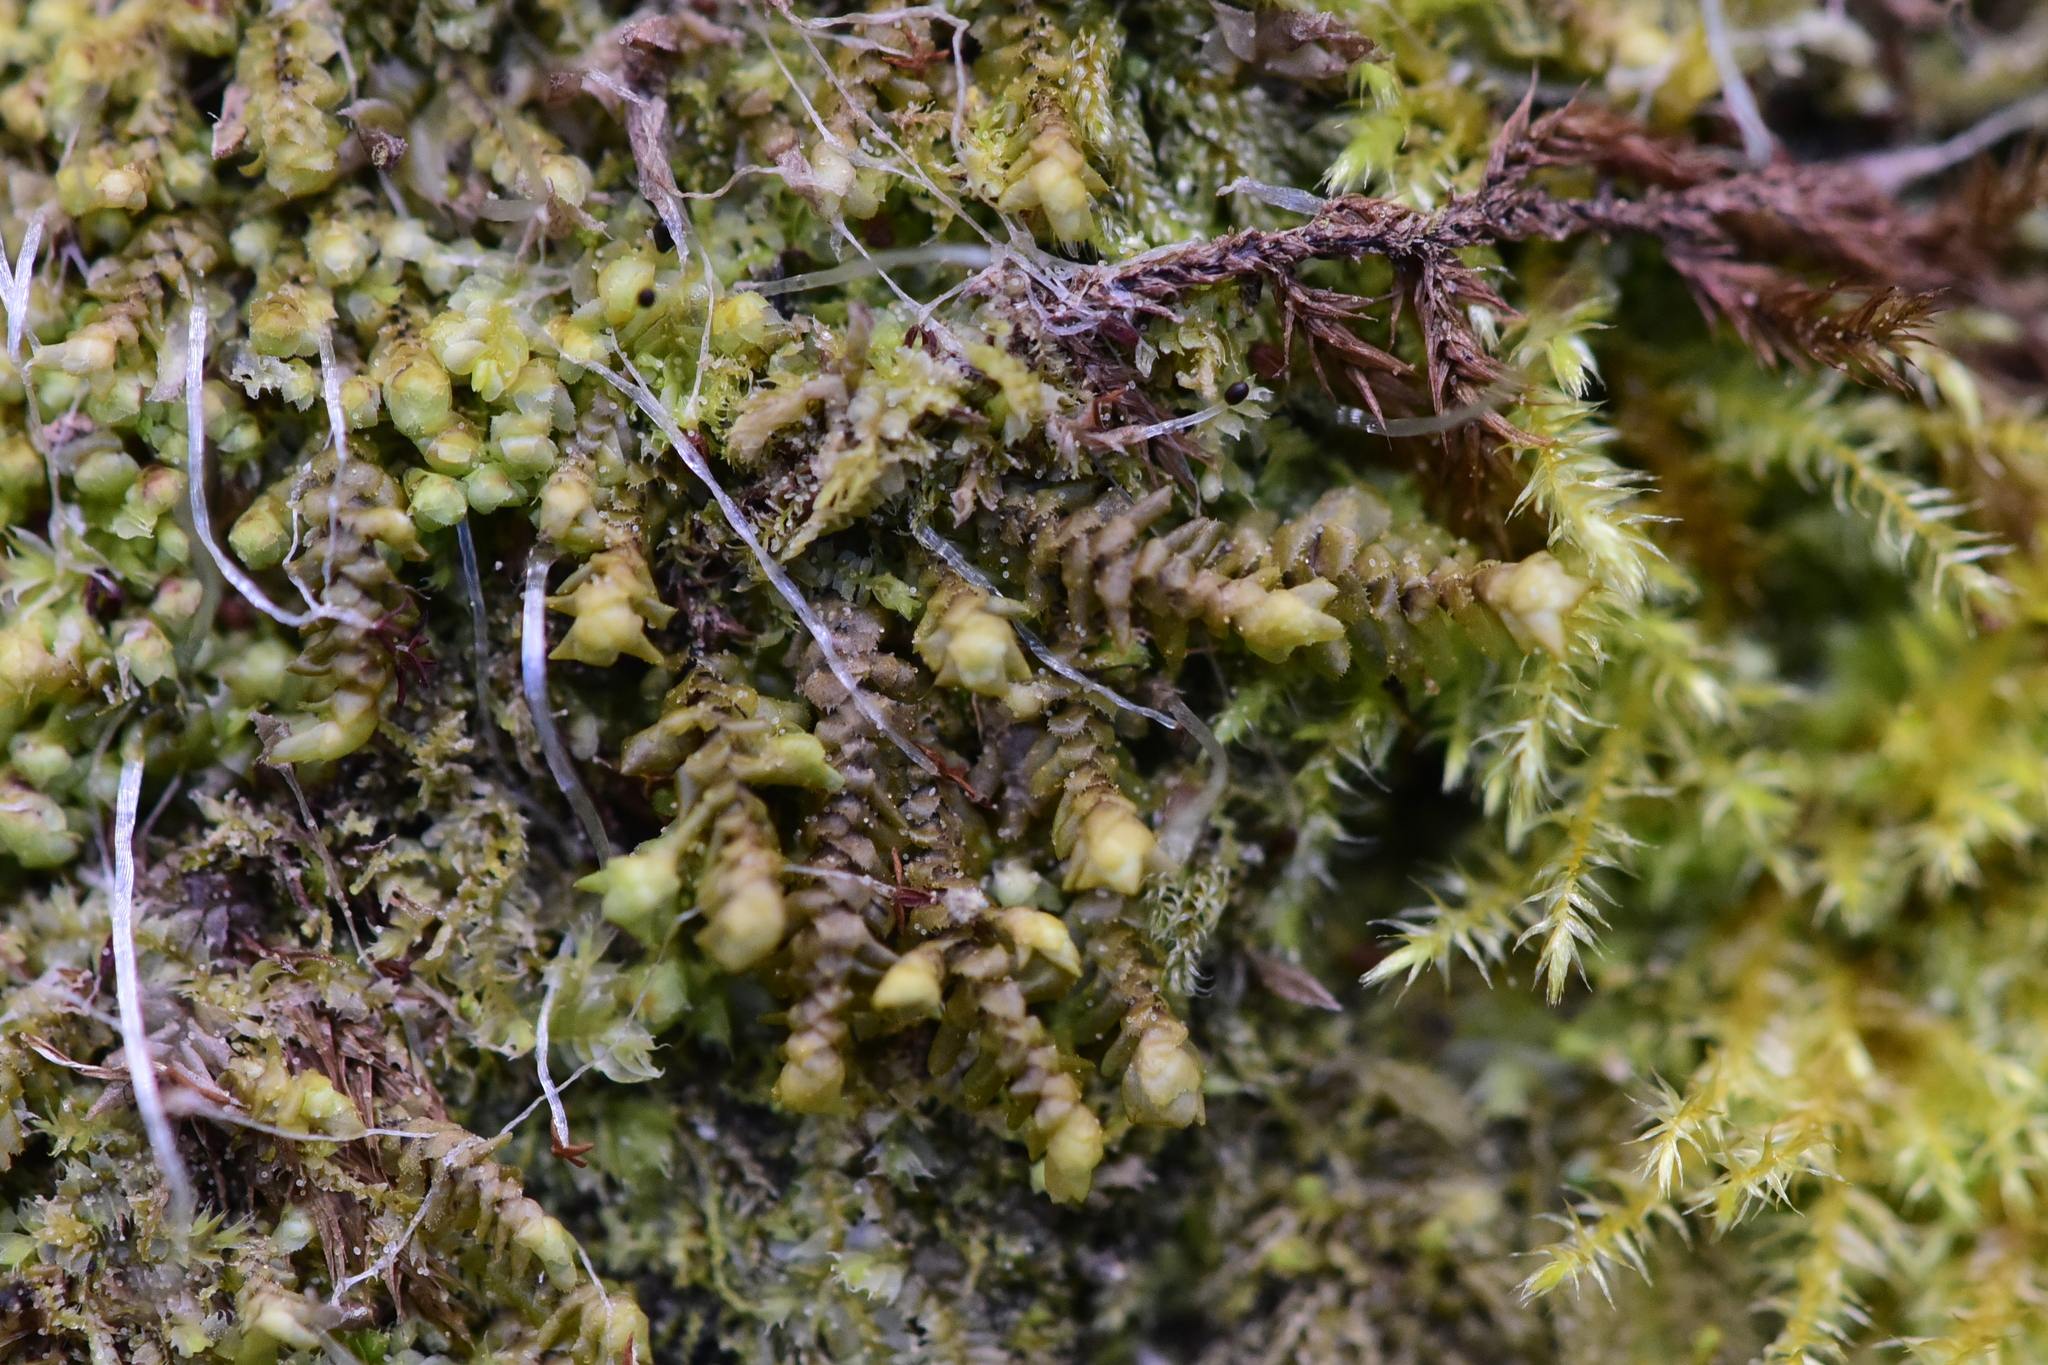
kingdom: Plantae
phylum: Marchantiophyta
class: Jungermanniopsida
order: Jungermanniales
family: Scapaniaceae
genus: Scapania
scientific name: Scapania bolanderi
